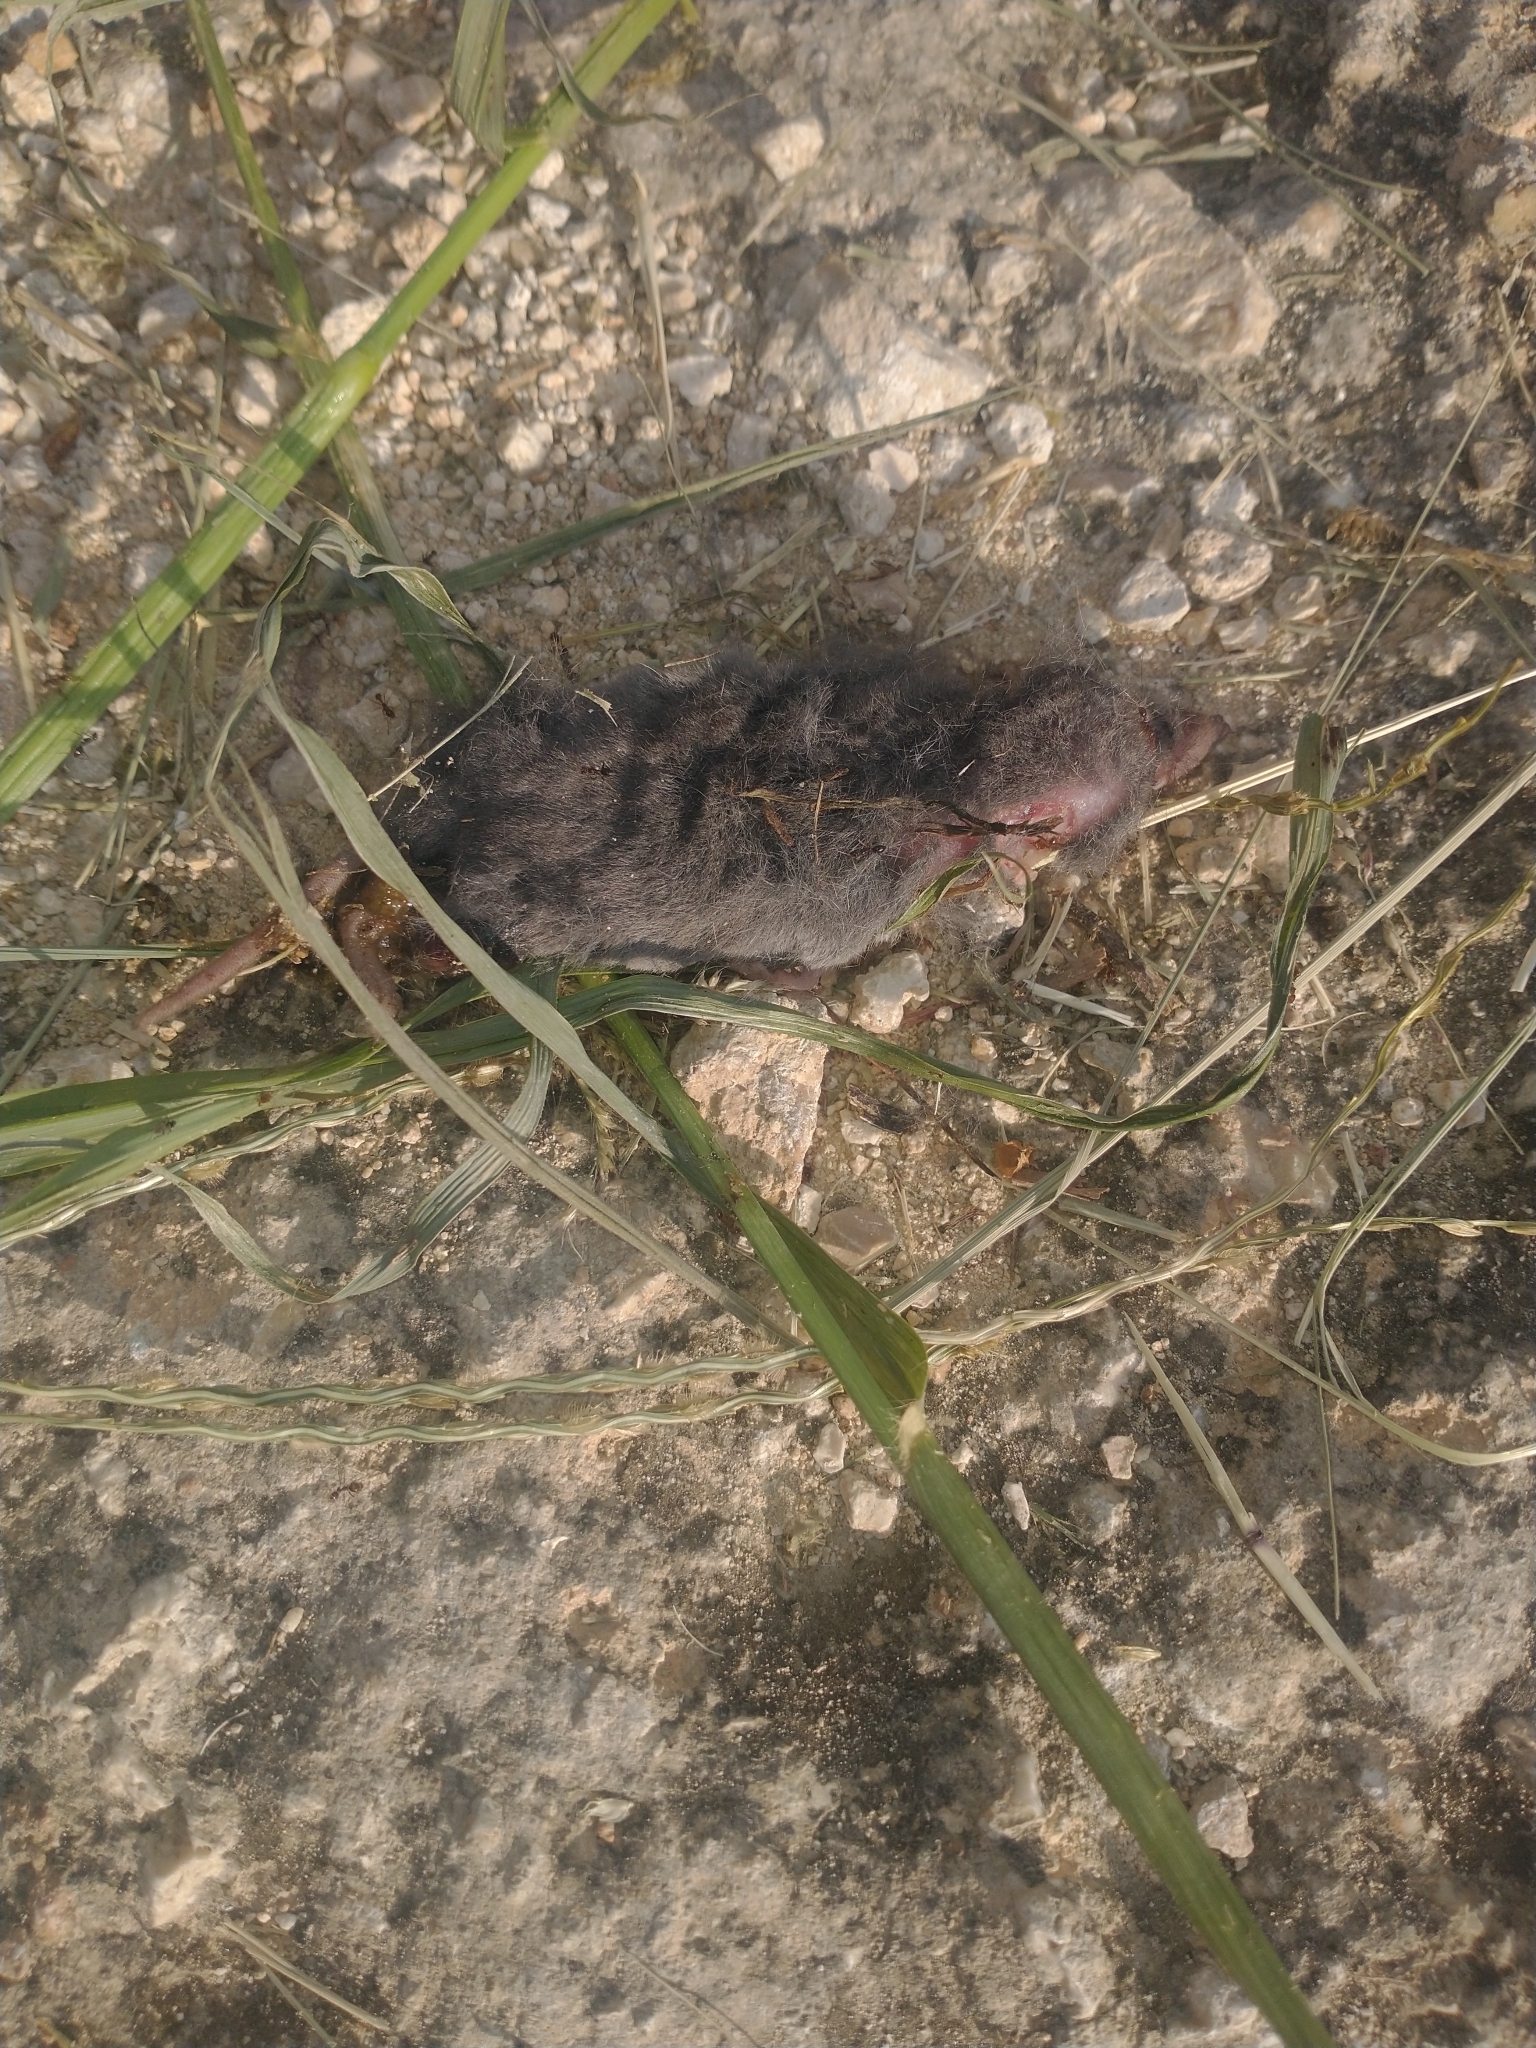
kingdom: Animalia
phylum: Chordata
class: Mammalia
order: Soricomorpha
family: Soricidae
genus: Cryptotis
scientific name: Cryptotis mayensis
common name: Yucatan small-eared shrew
